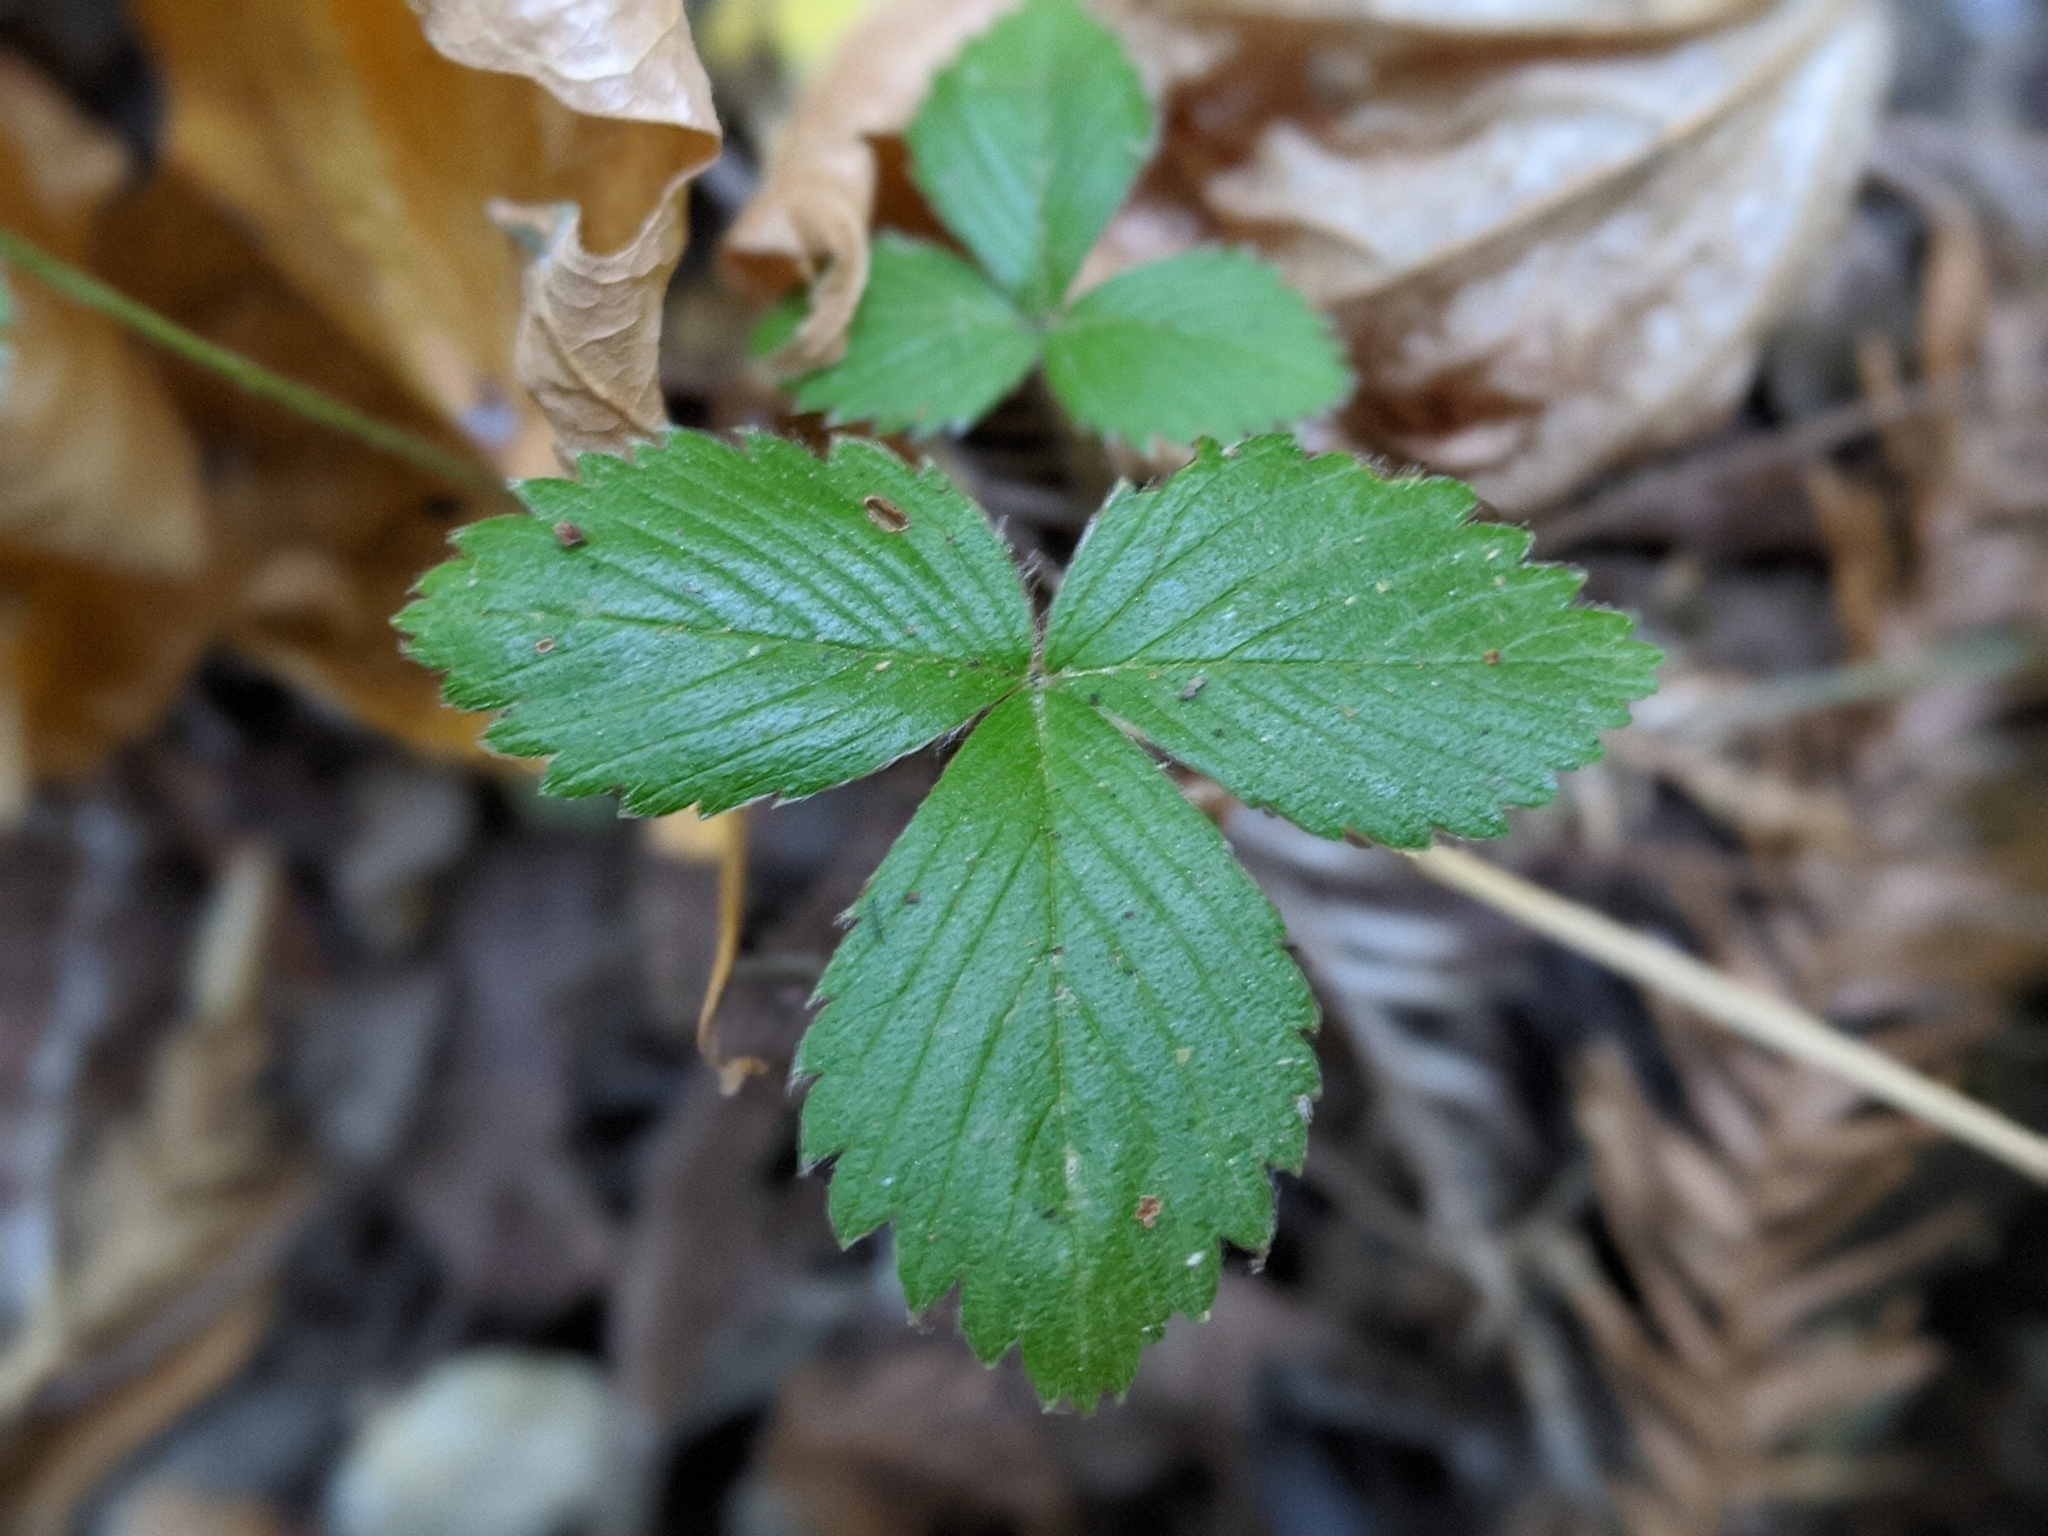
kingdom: Plantae
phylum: Tracheophyta
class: Magnoliopsida
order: Rosales
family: Rosaceae
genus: Fragaria
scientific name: Fragaria vesca
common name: Wild strawberry
